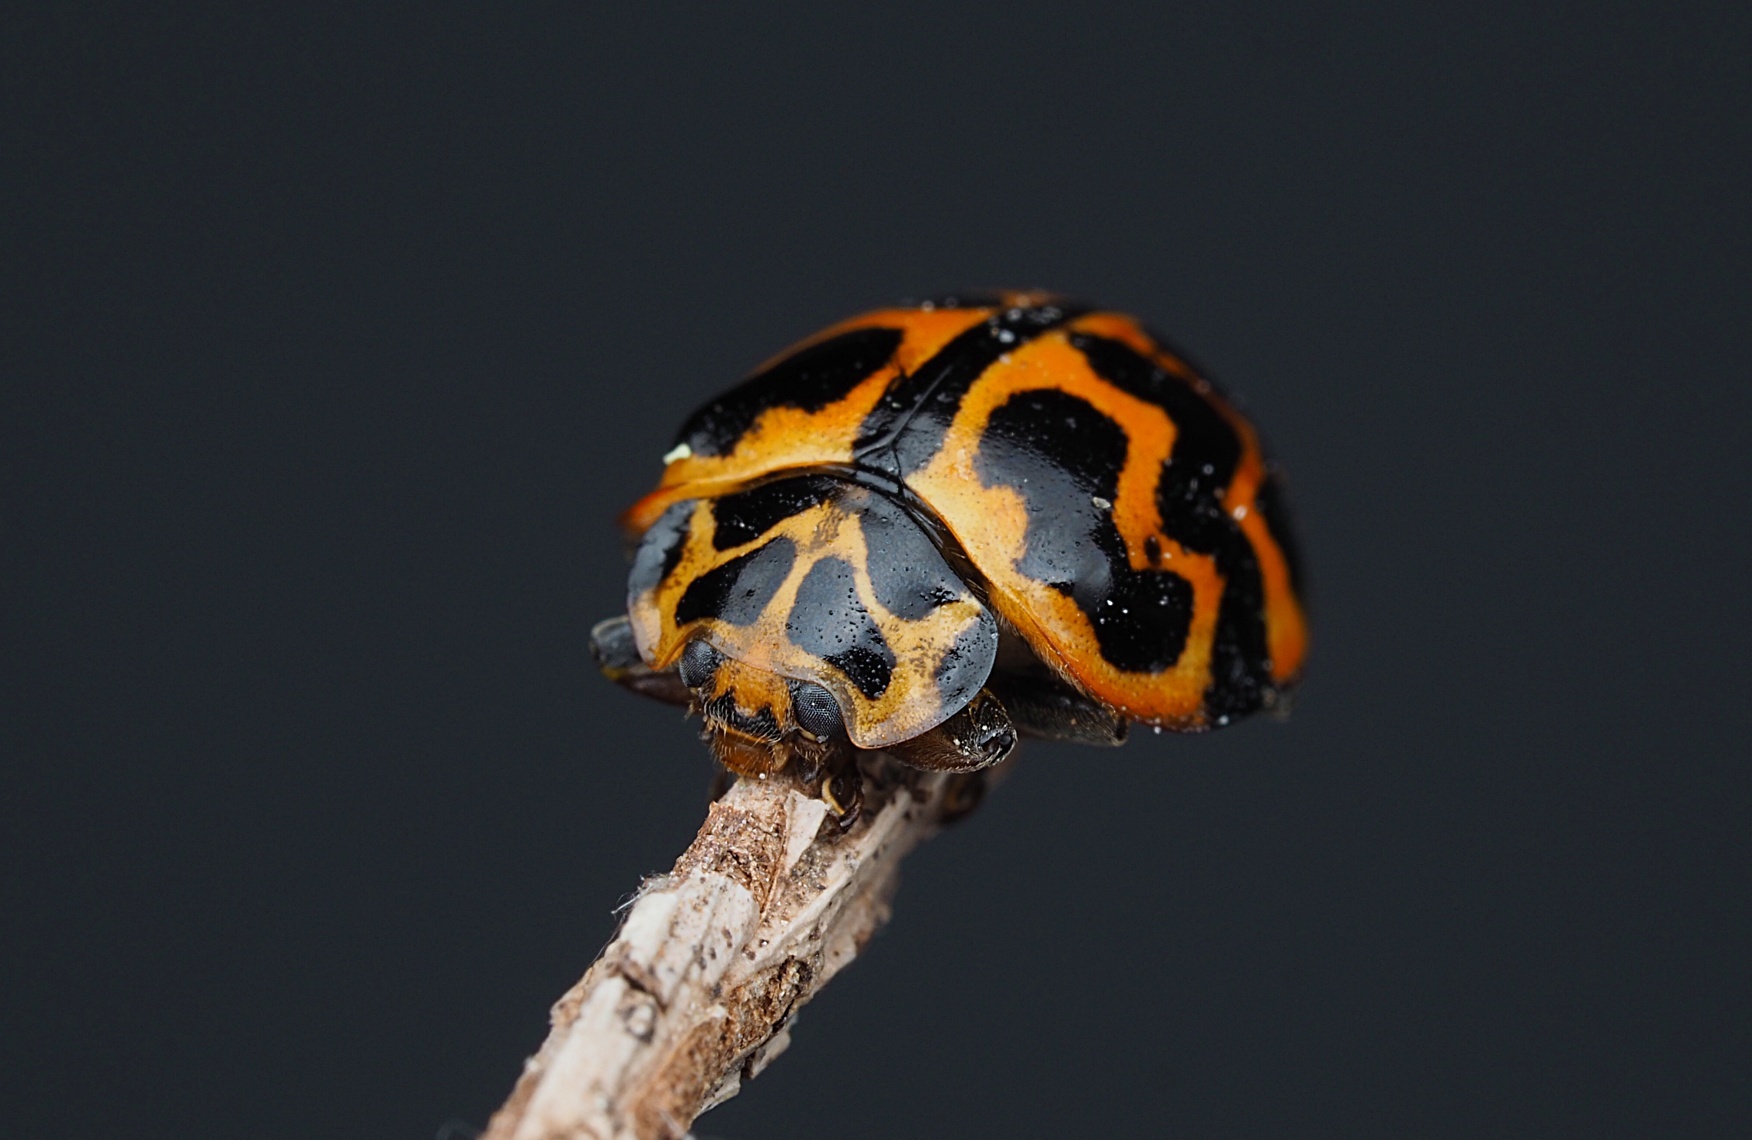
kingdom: Animalia
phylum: Arthropoda
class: Insecta
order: Coleoptera
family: Coccinellidae
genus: Cleobora
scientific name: Cleobora
